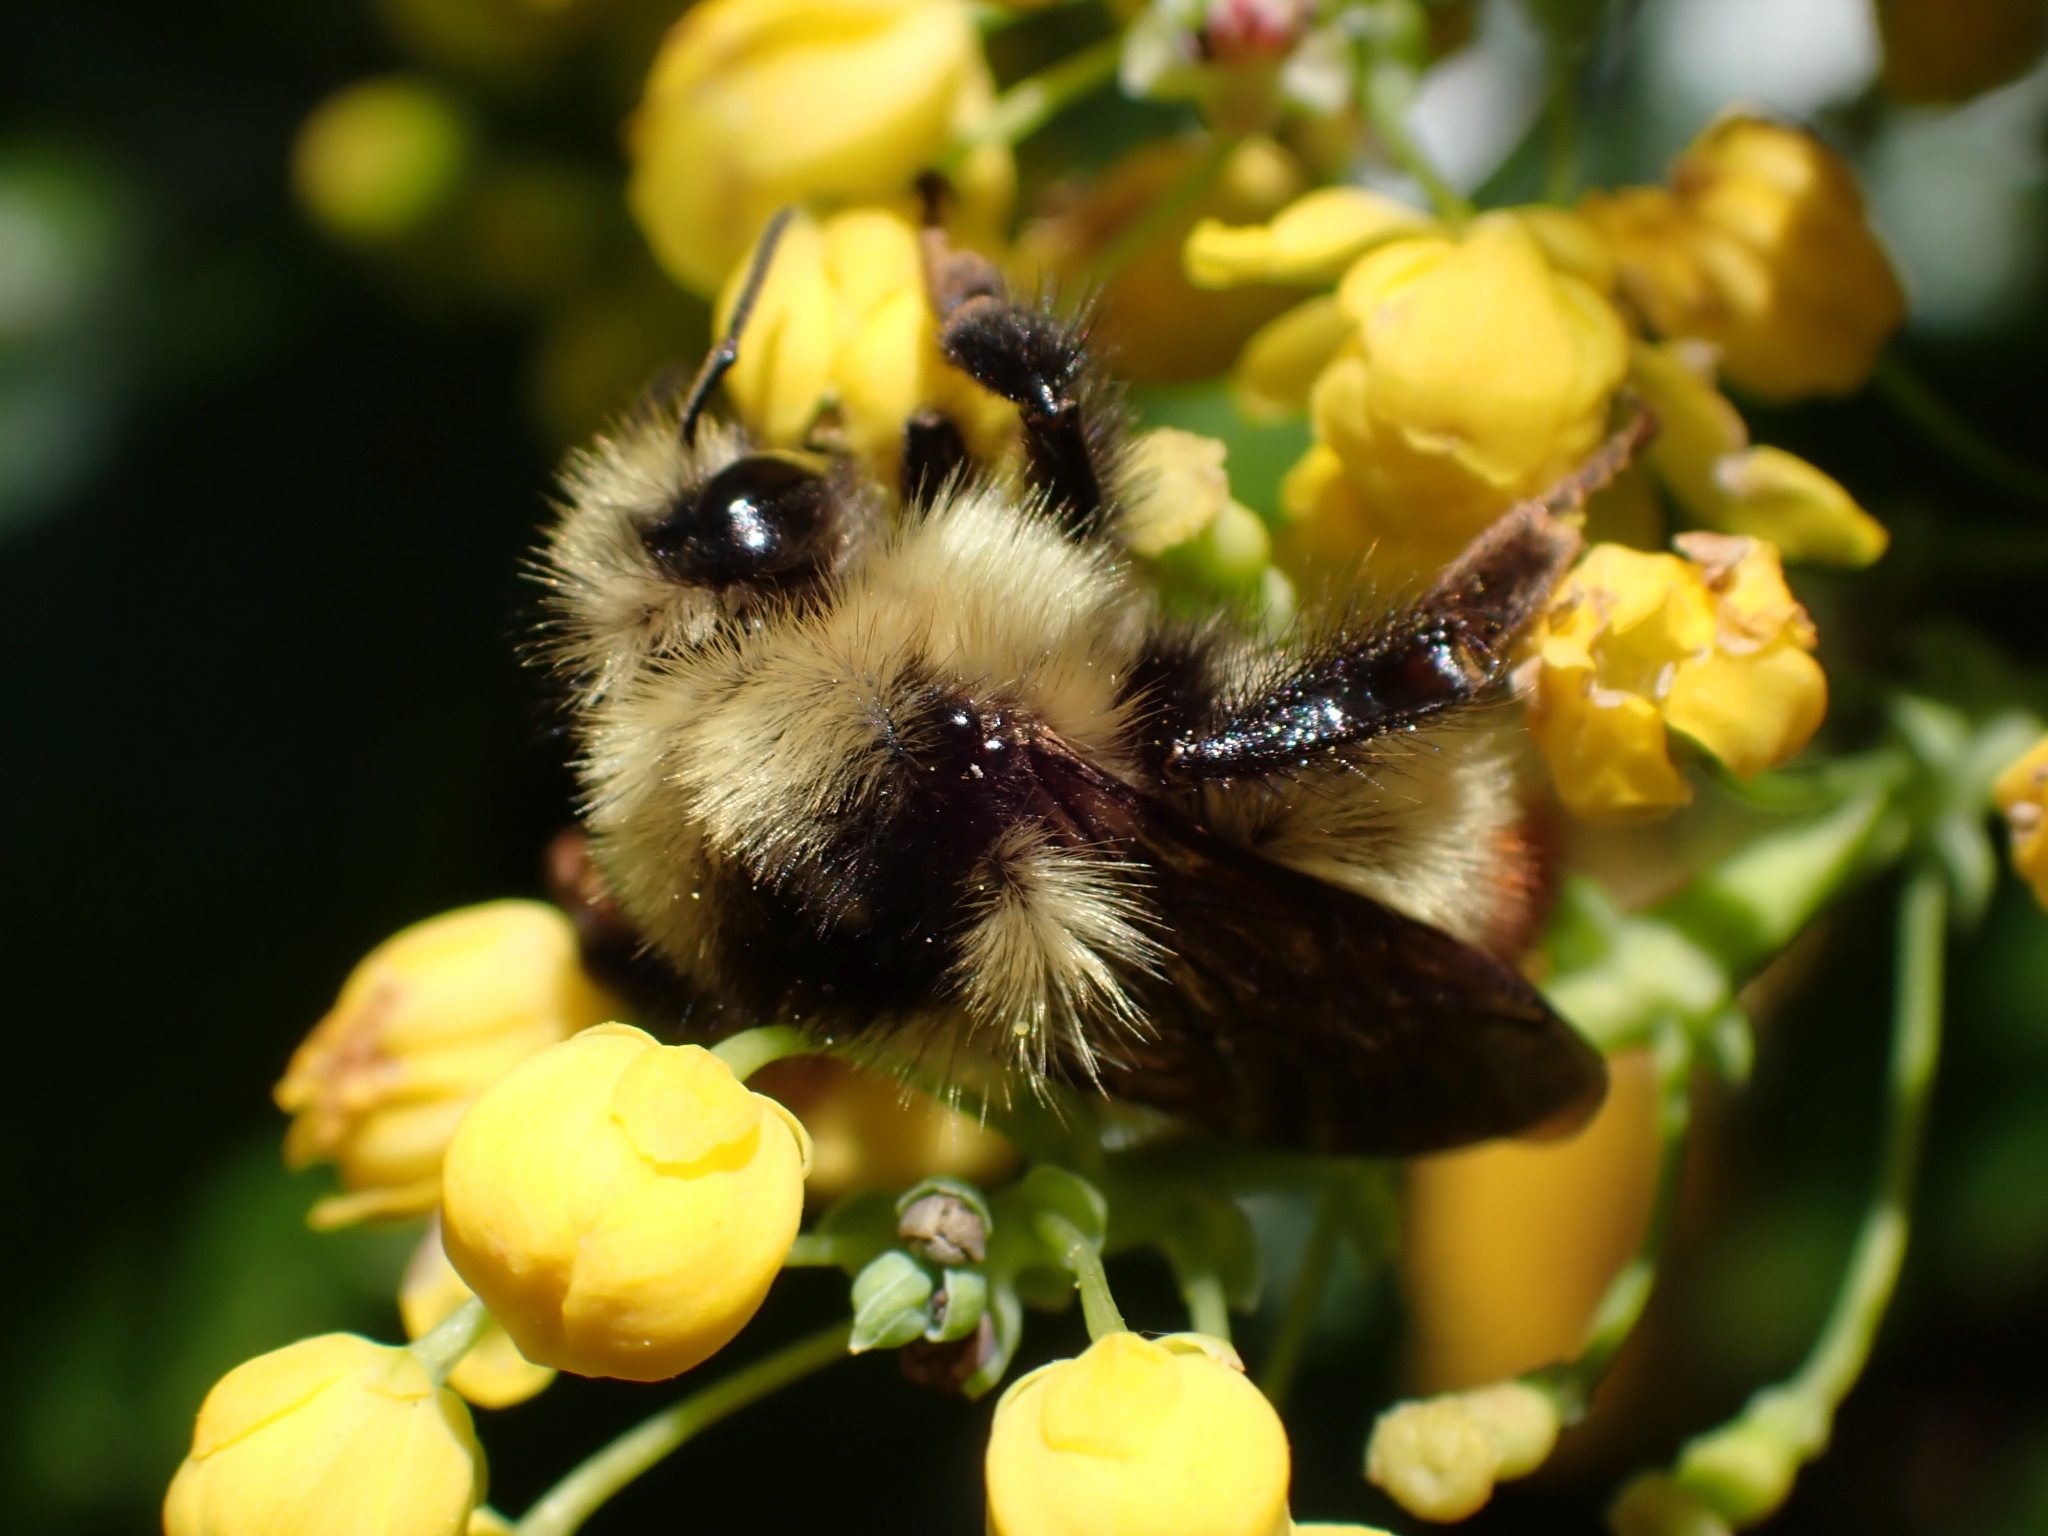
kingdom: Animalia
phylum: Arthropoda
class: Insecta
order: Hymenoptera
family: Apidae
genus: Bombus
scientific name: Bombus centralis
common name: Central bumble bee
